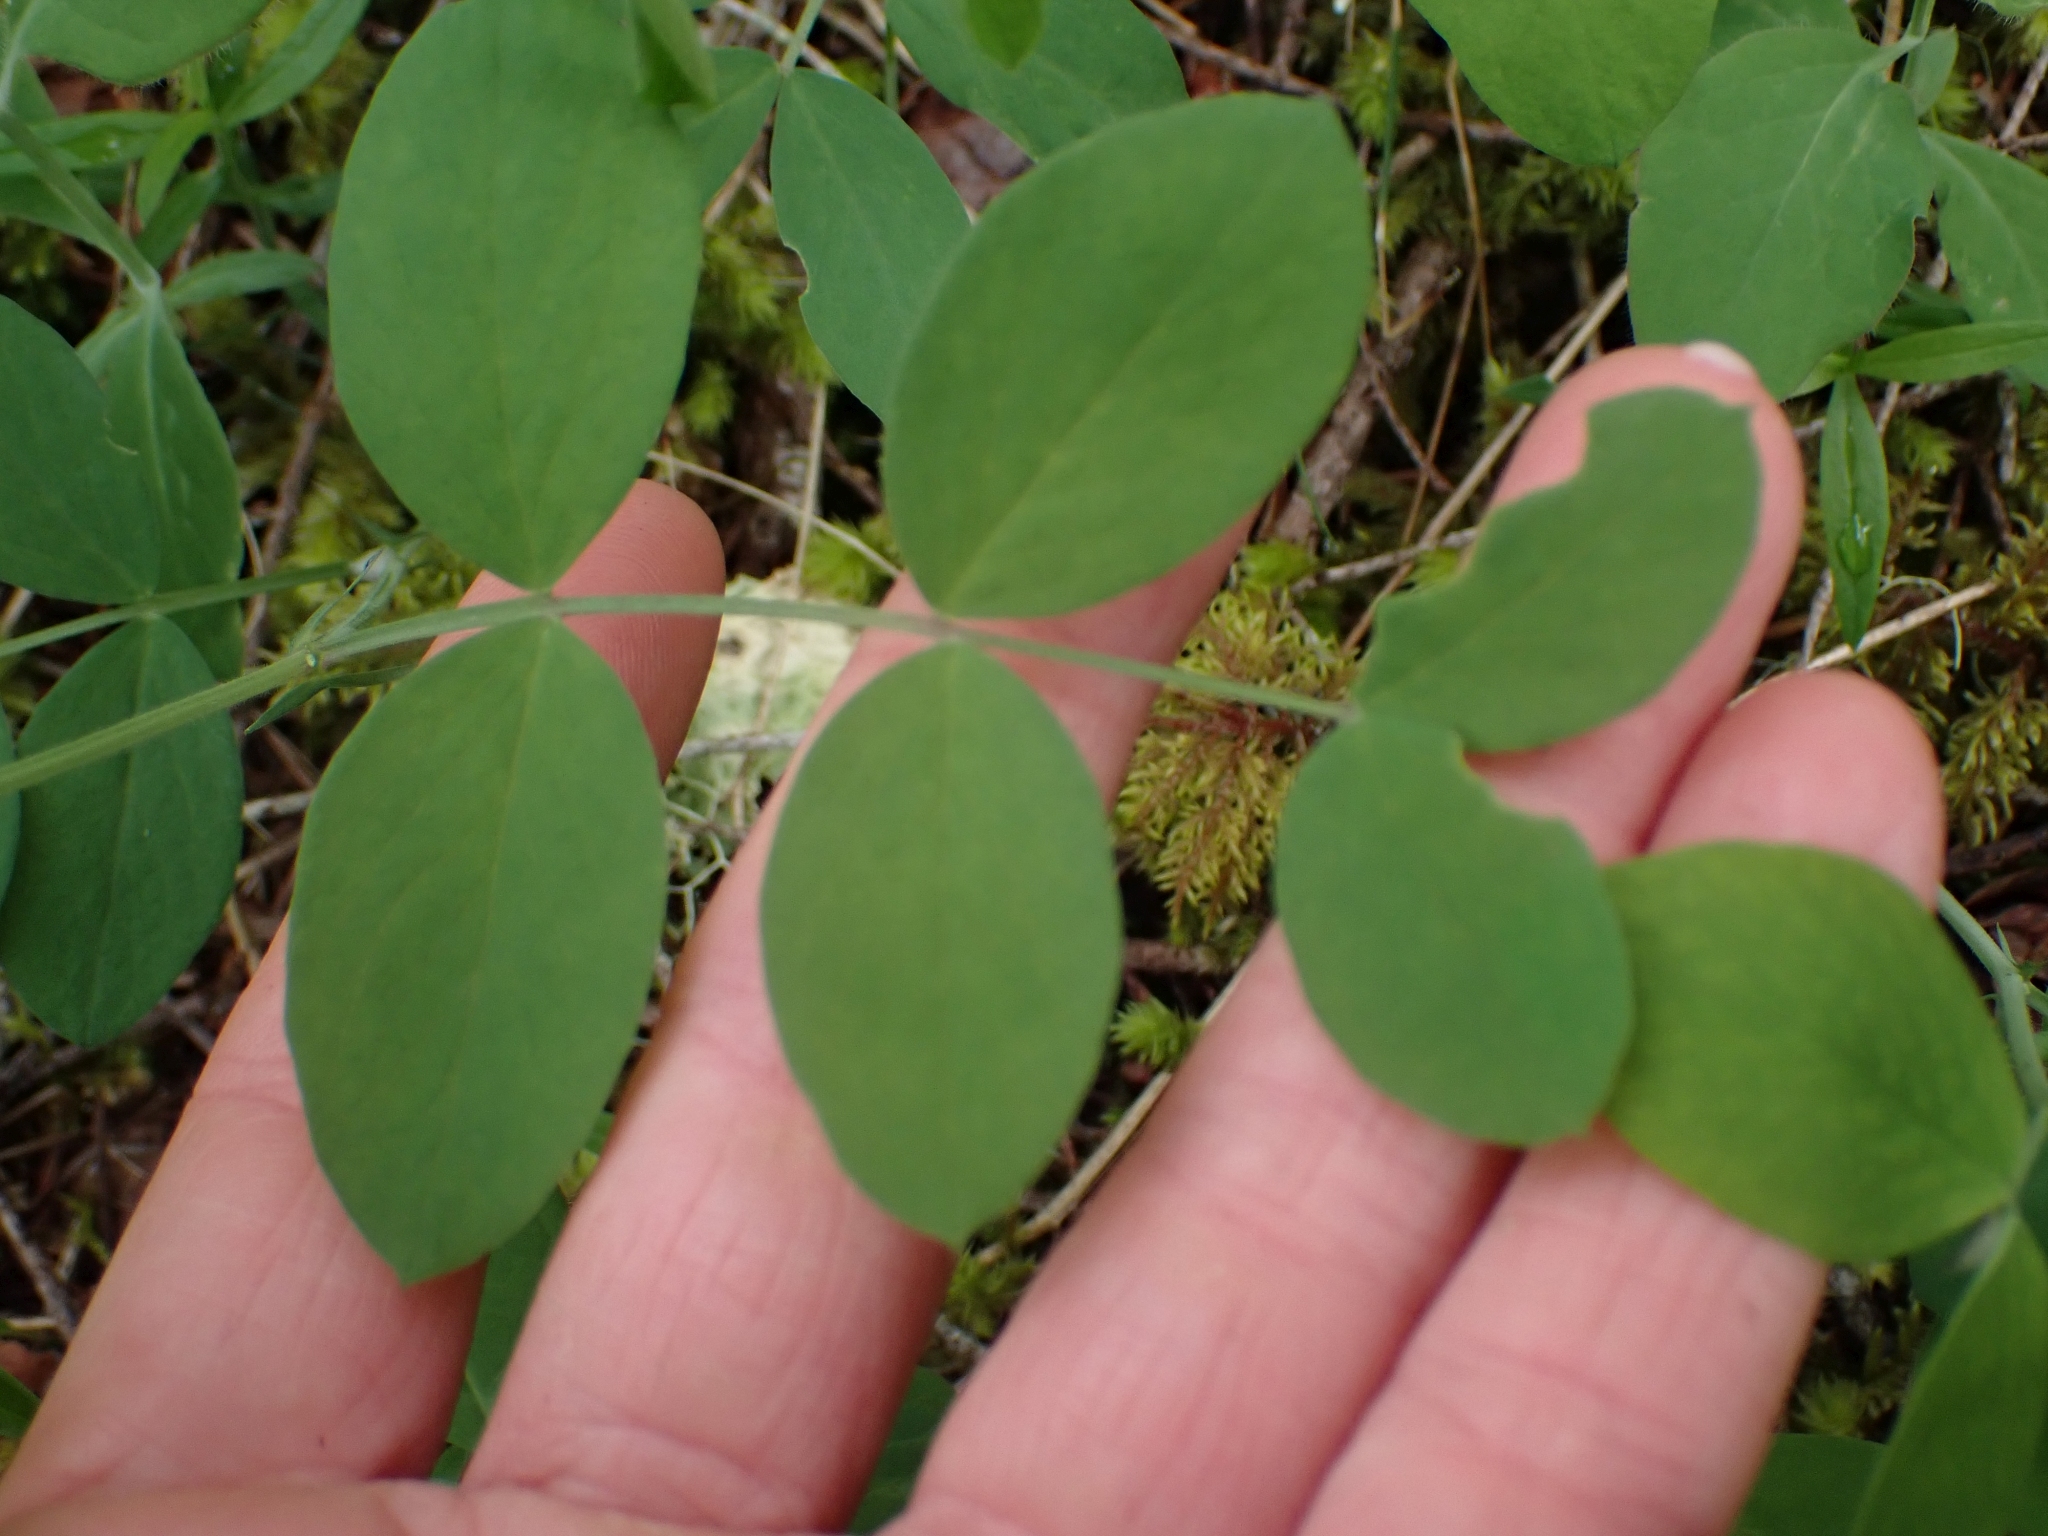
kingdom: Plantae
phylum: Tracheophyta
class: Magnoliopsida
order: Fabales
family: Fabaceae
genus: Lathyrus
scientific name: Lathyrus nevadensis
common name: Sierra nevada peavine
